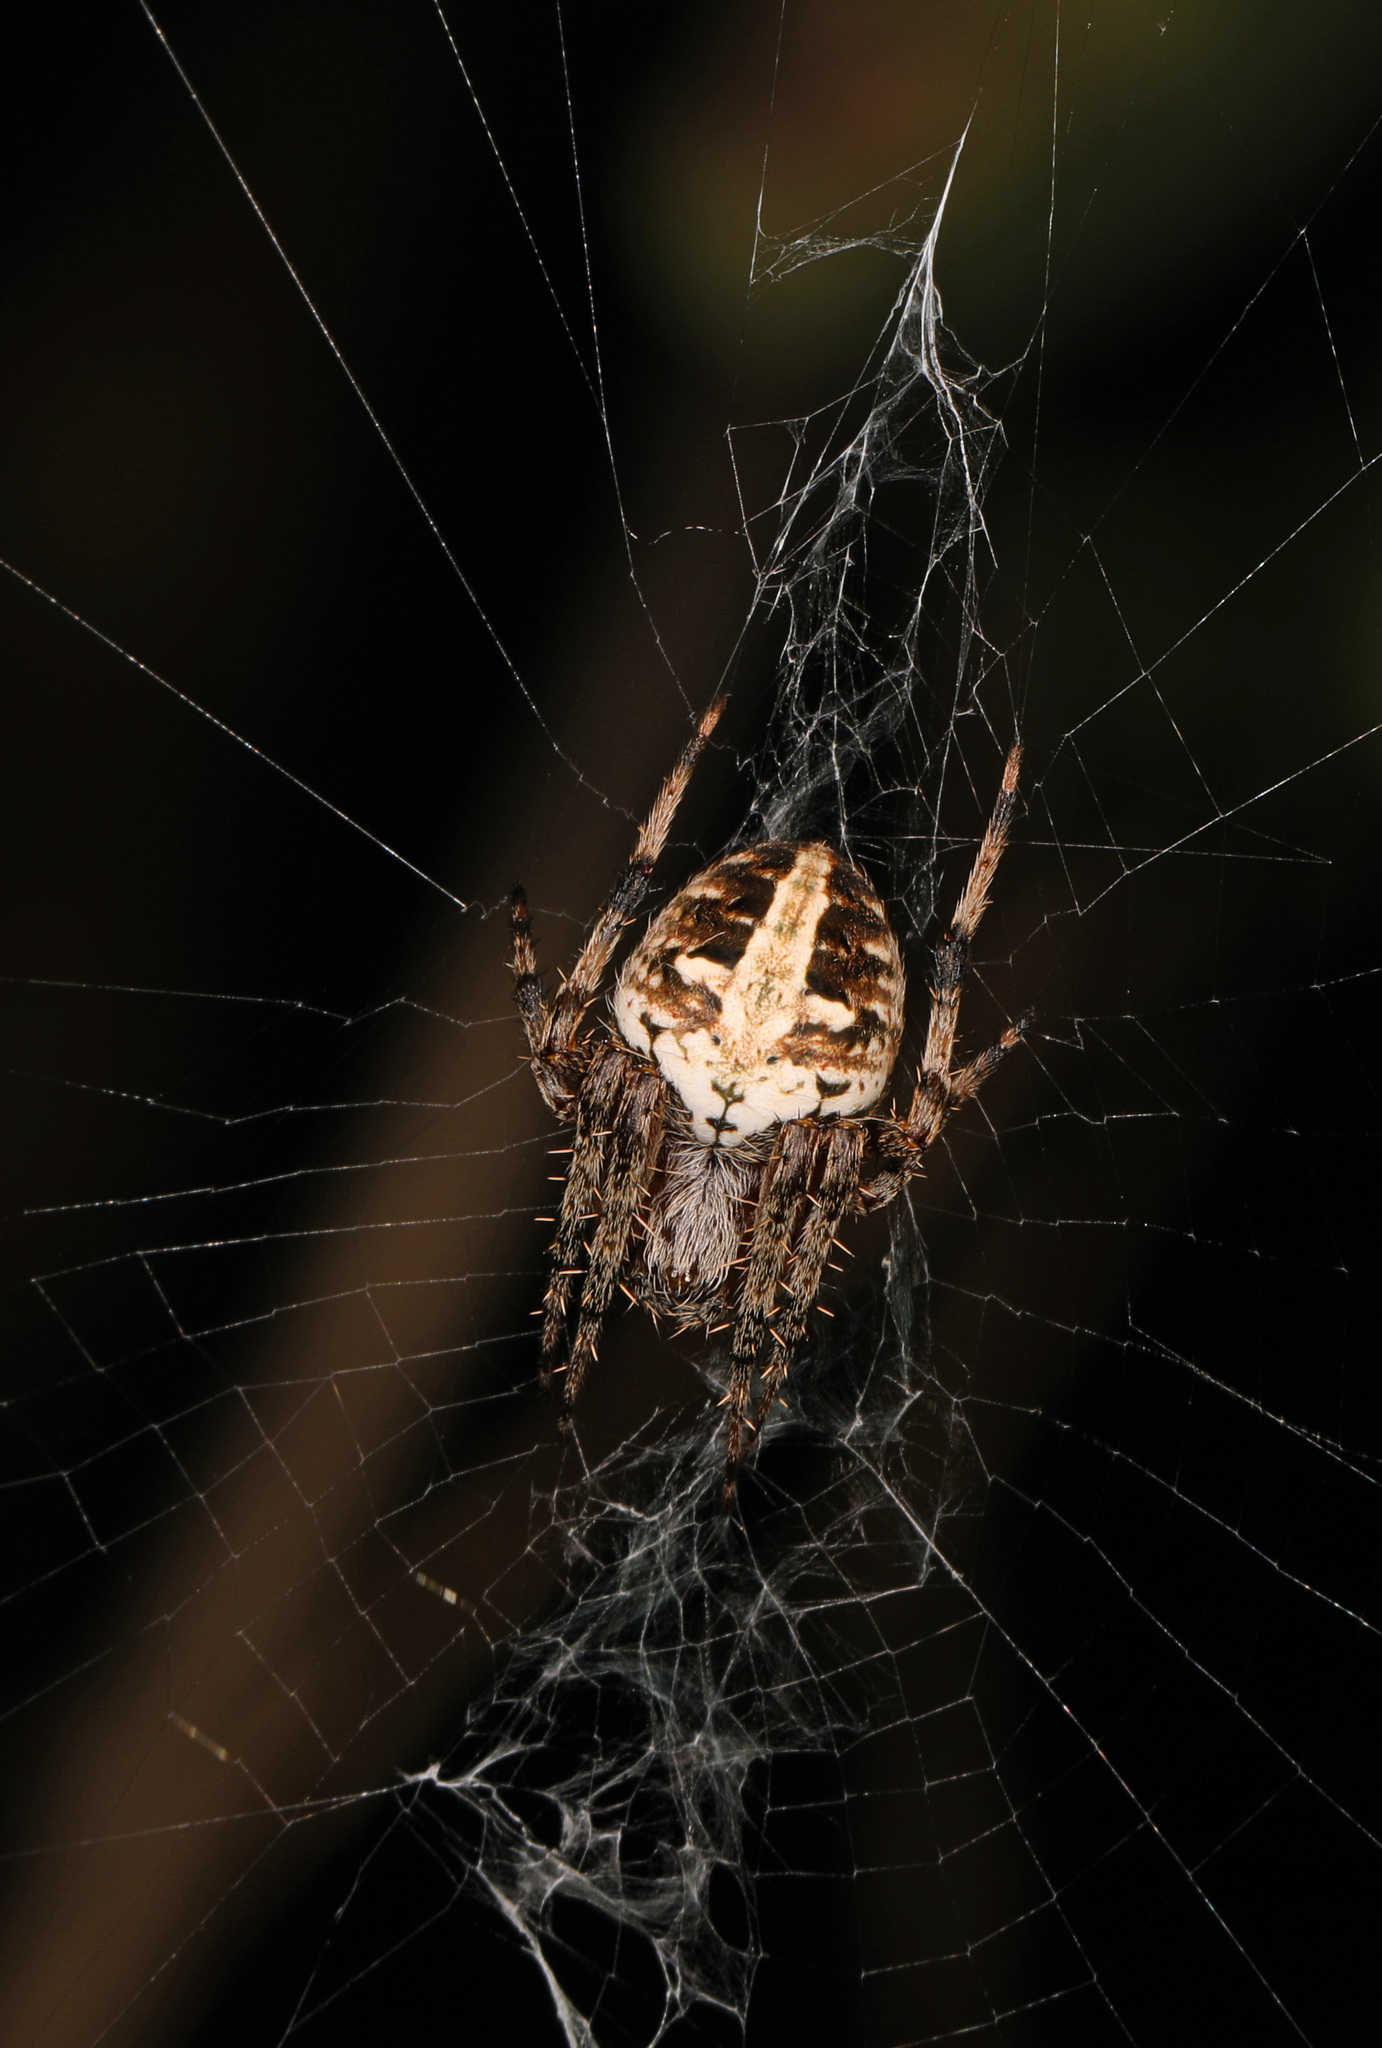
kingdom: Animalia
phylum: Arthropoda
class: Arachnida
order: Araneae
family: Araneidae
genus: Neoscona
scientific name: Neoscona arabesca
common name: Orb weavers
